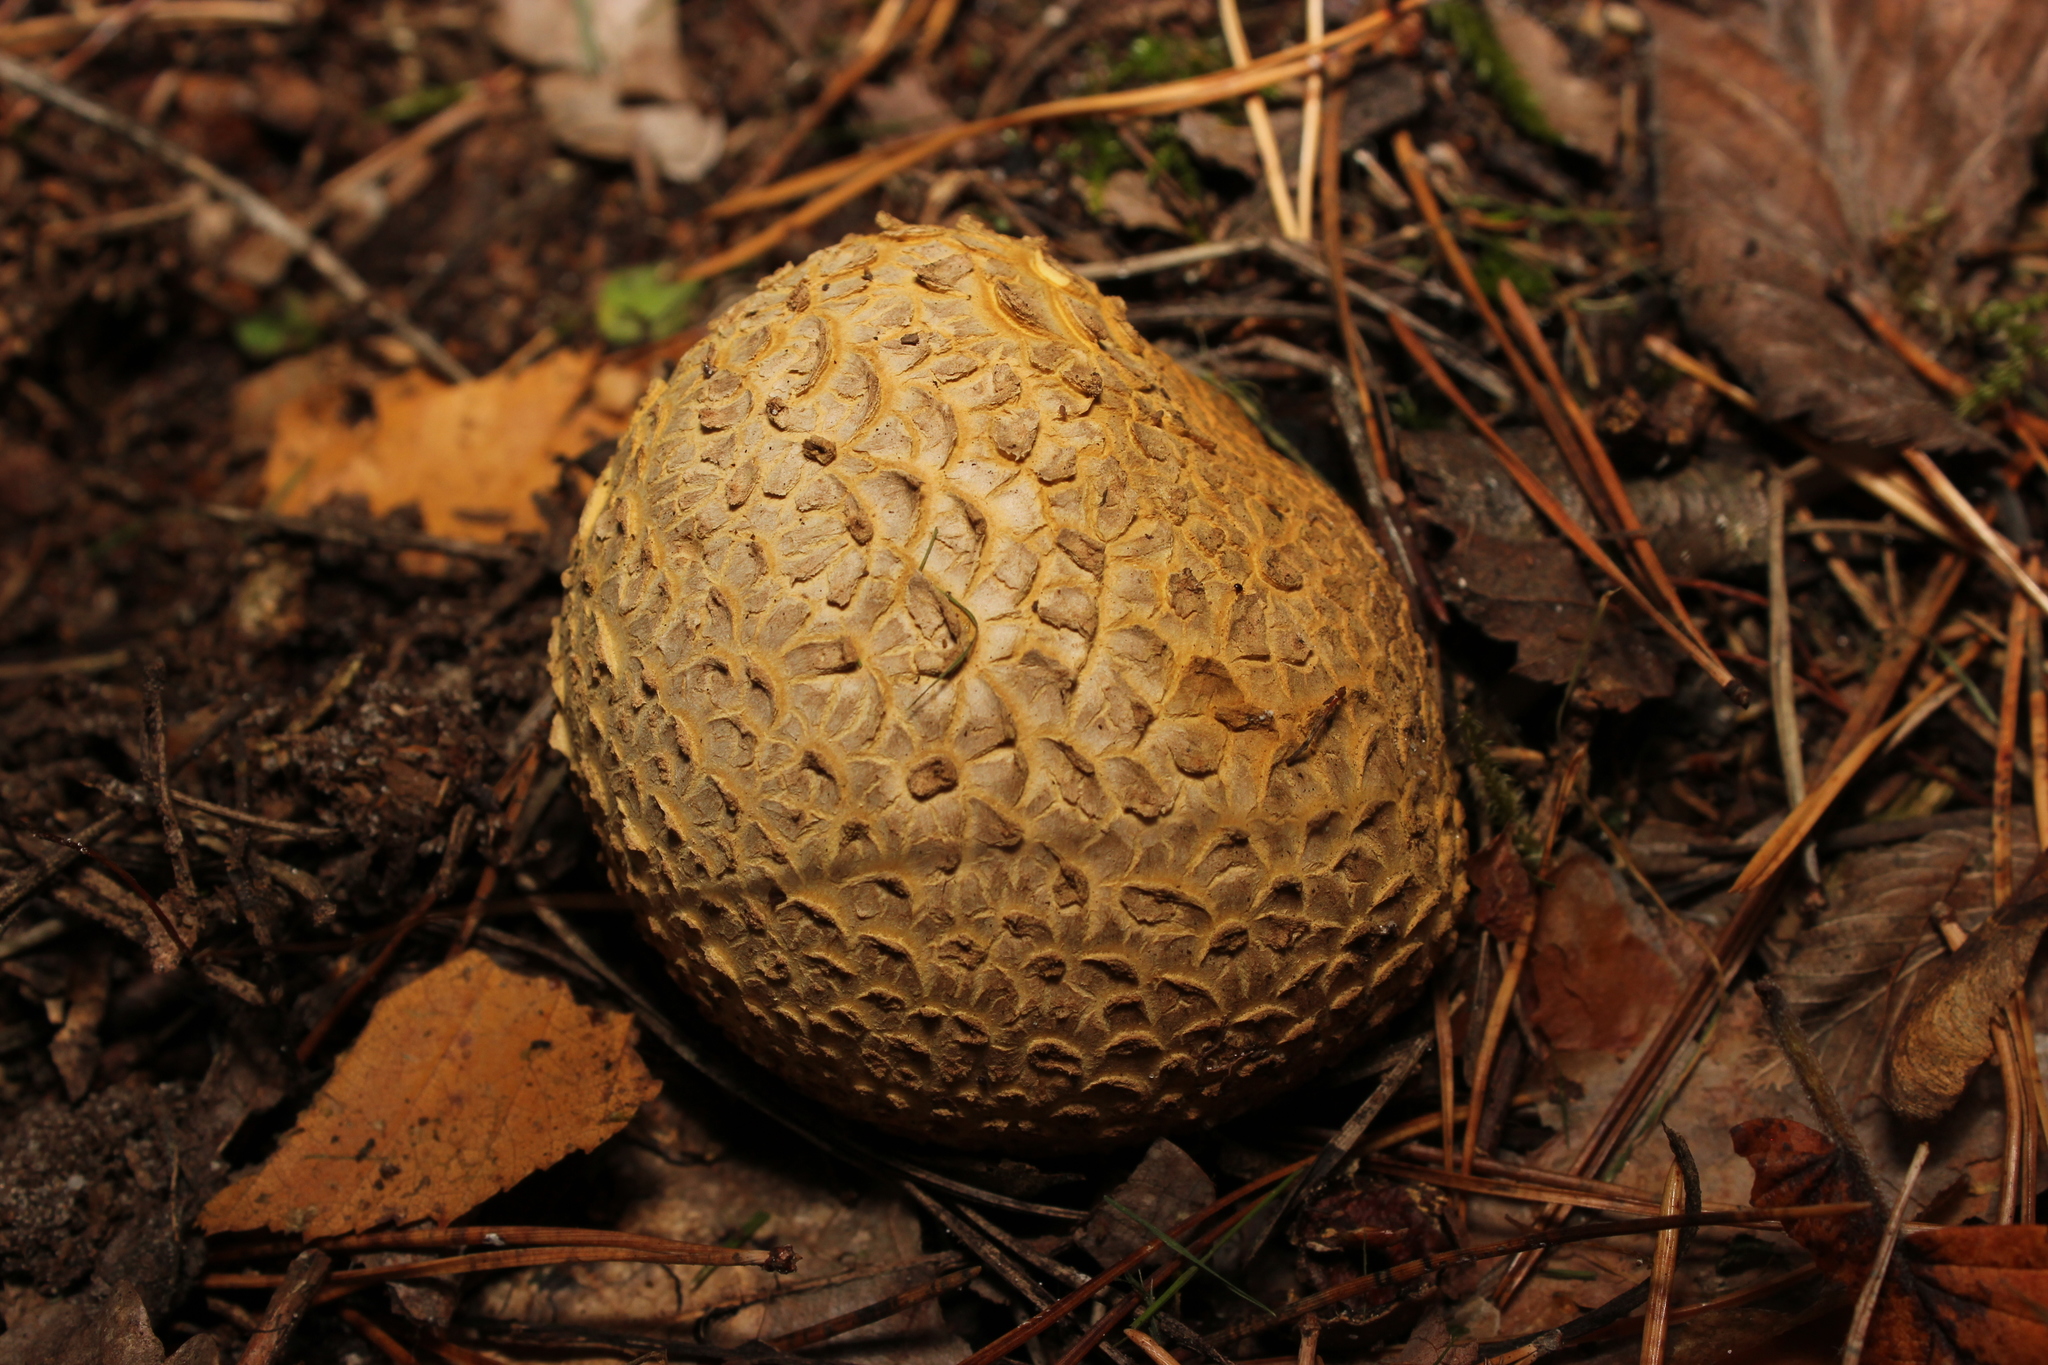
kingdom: Fungi
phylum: Basidiomycota
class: Agaricomycetes
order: Boletales
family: Sclerodermataceae
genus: Scleroderma
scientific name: Scleroderma citrinum
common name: Common earthball
